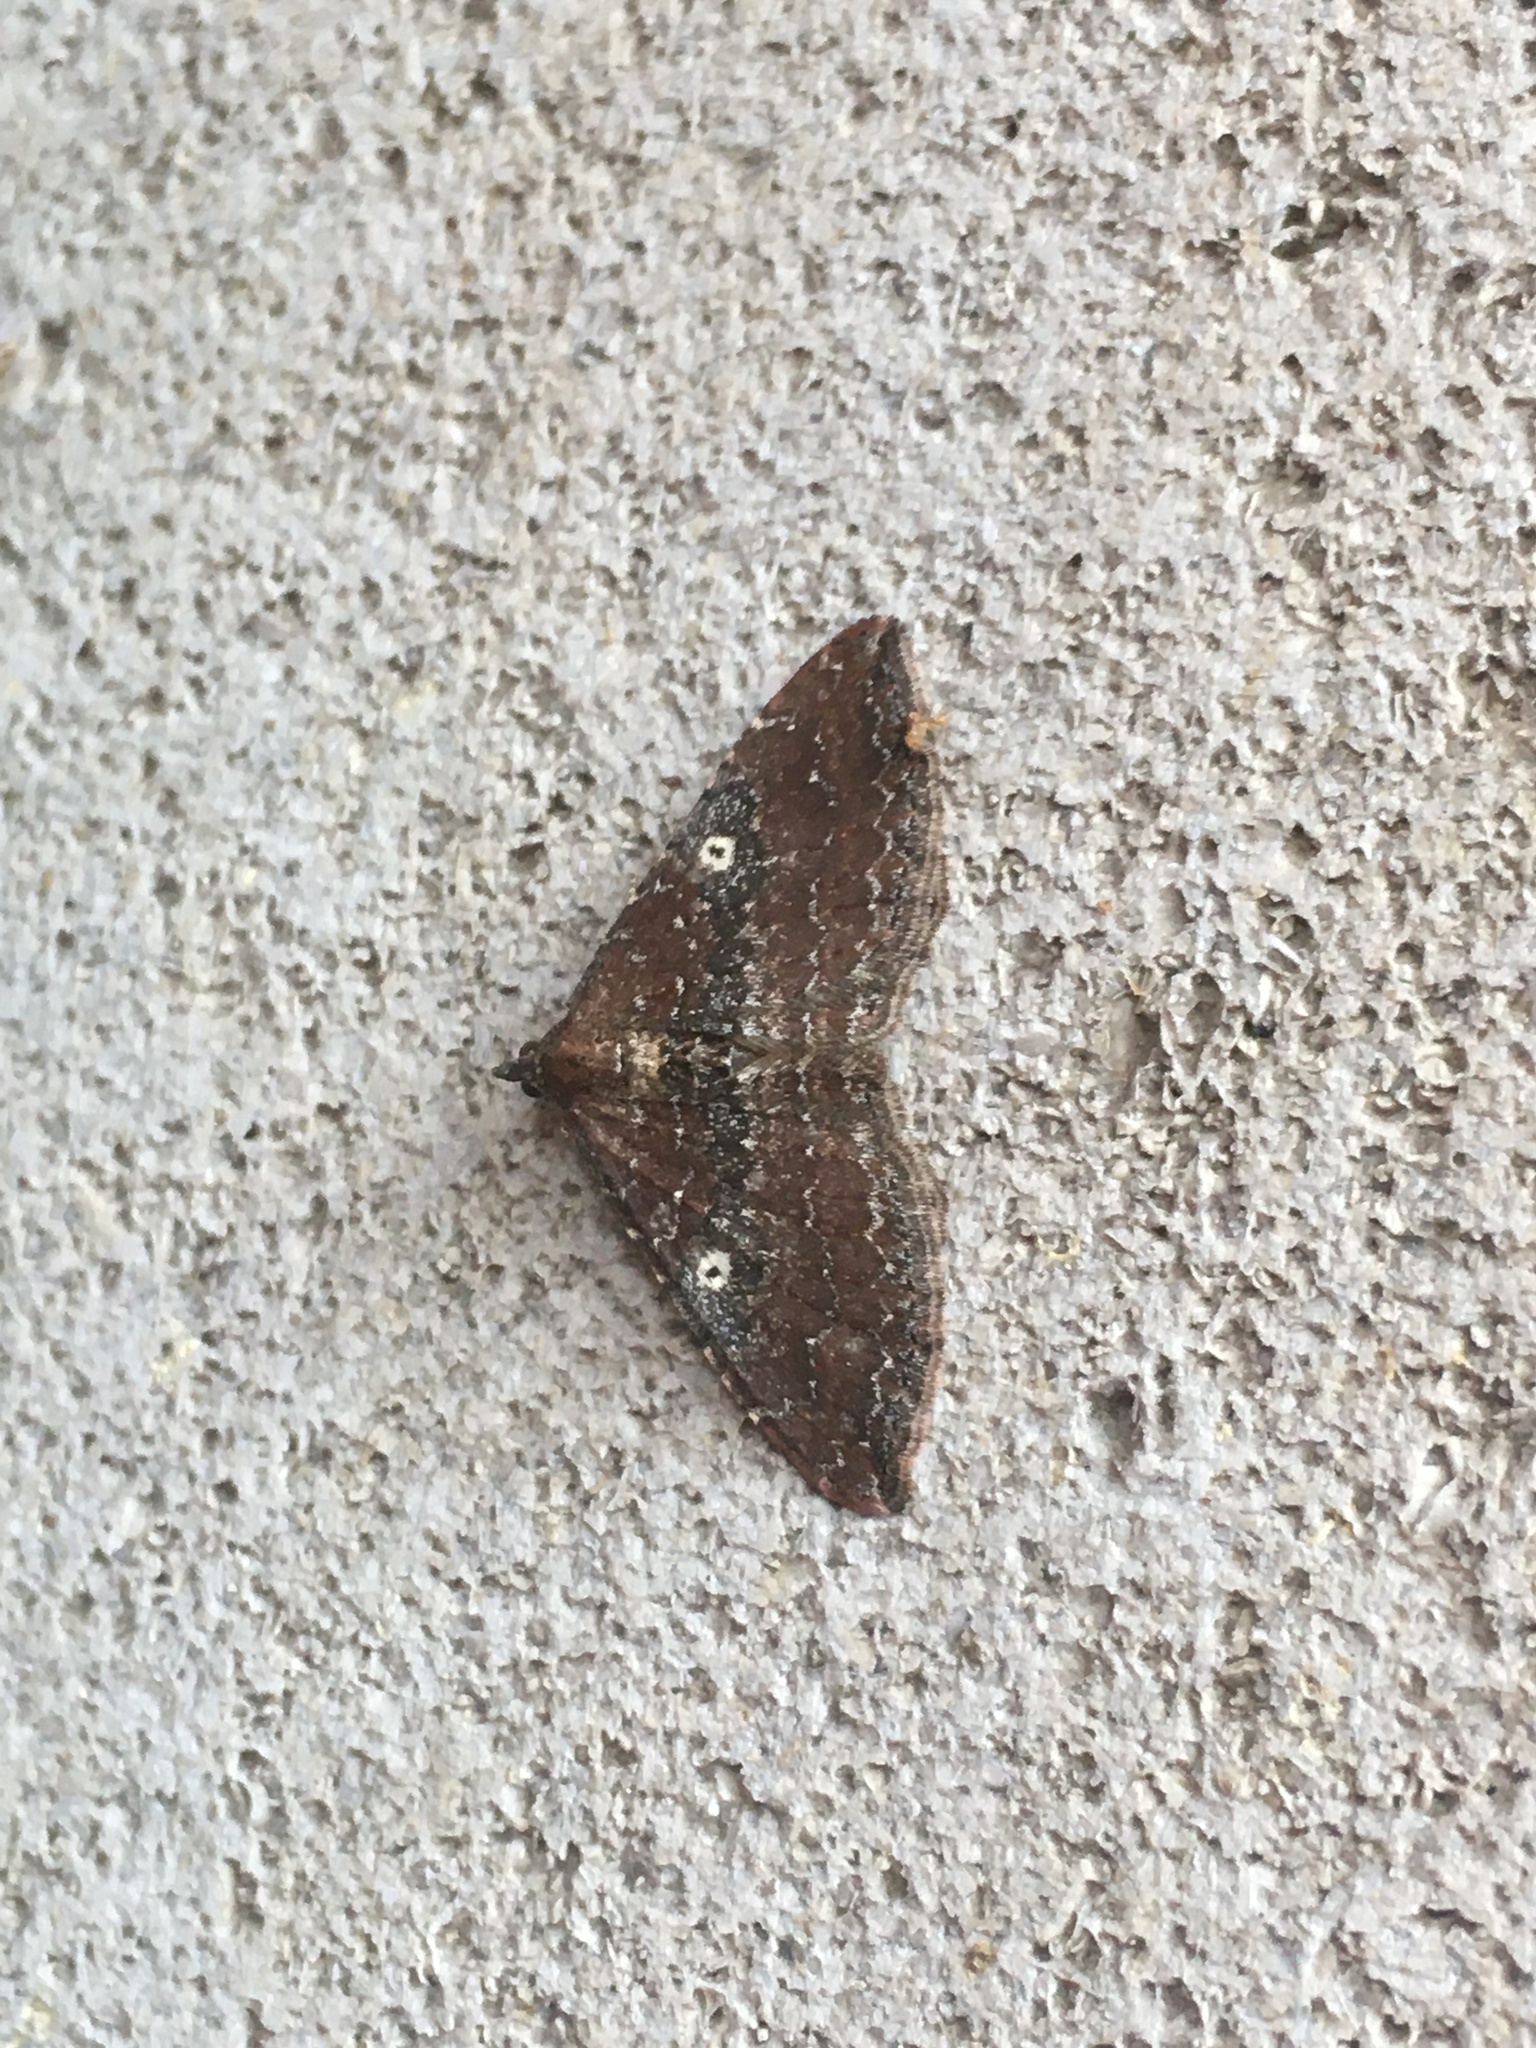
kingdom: Animalia
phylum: Arthropoda
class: Insecta
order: Lepidoptera
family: Geometridae
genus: Orthonama
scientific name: Orthonama obstipata
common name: The gem
